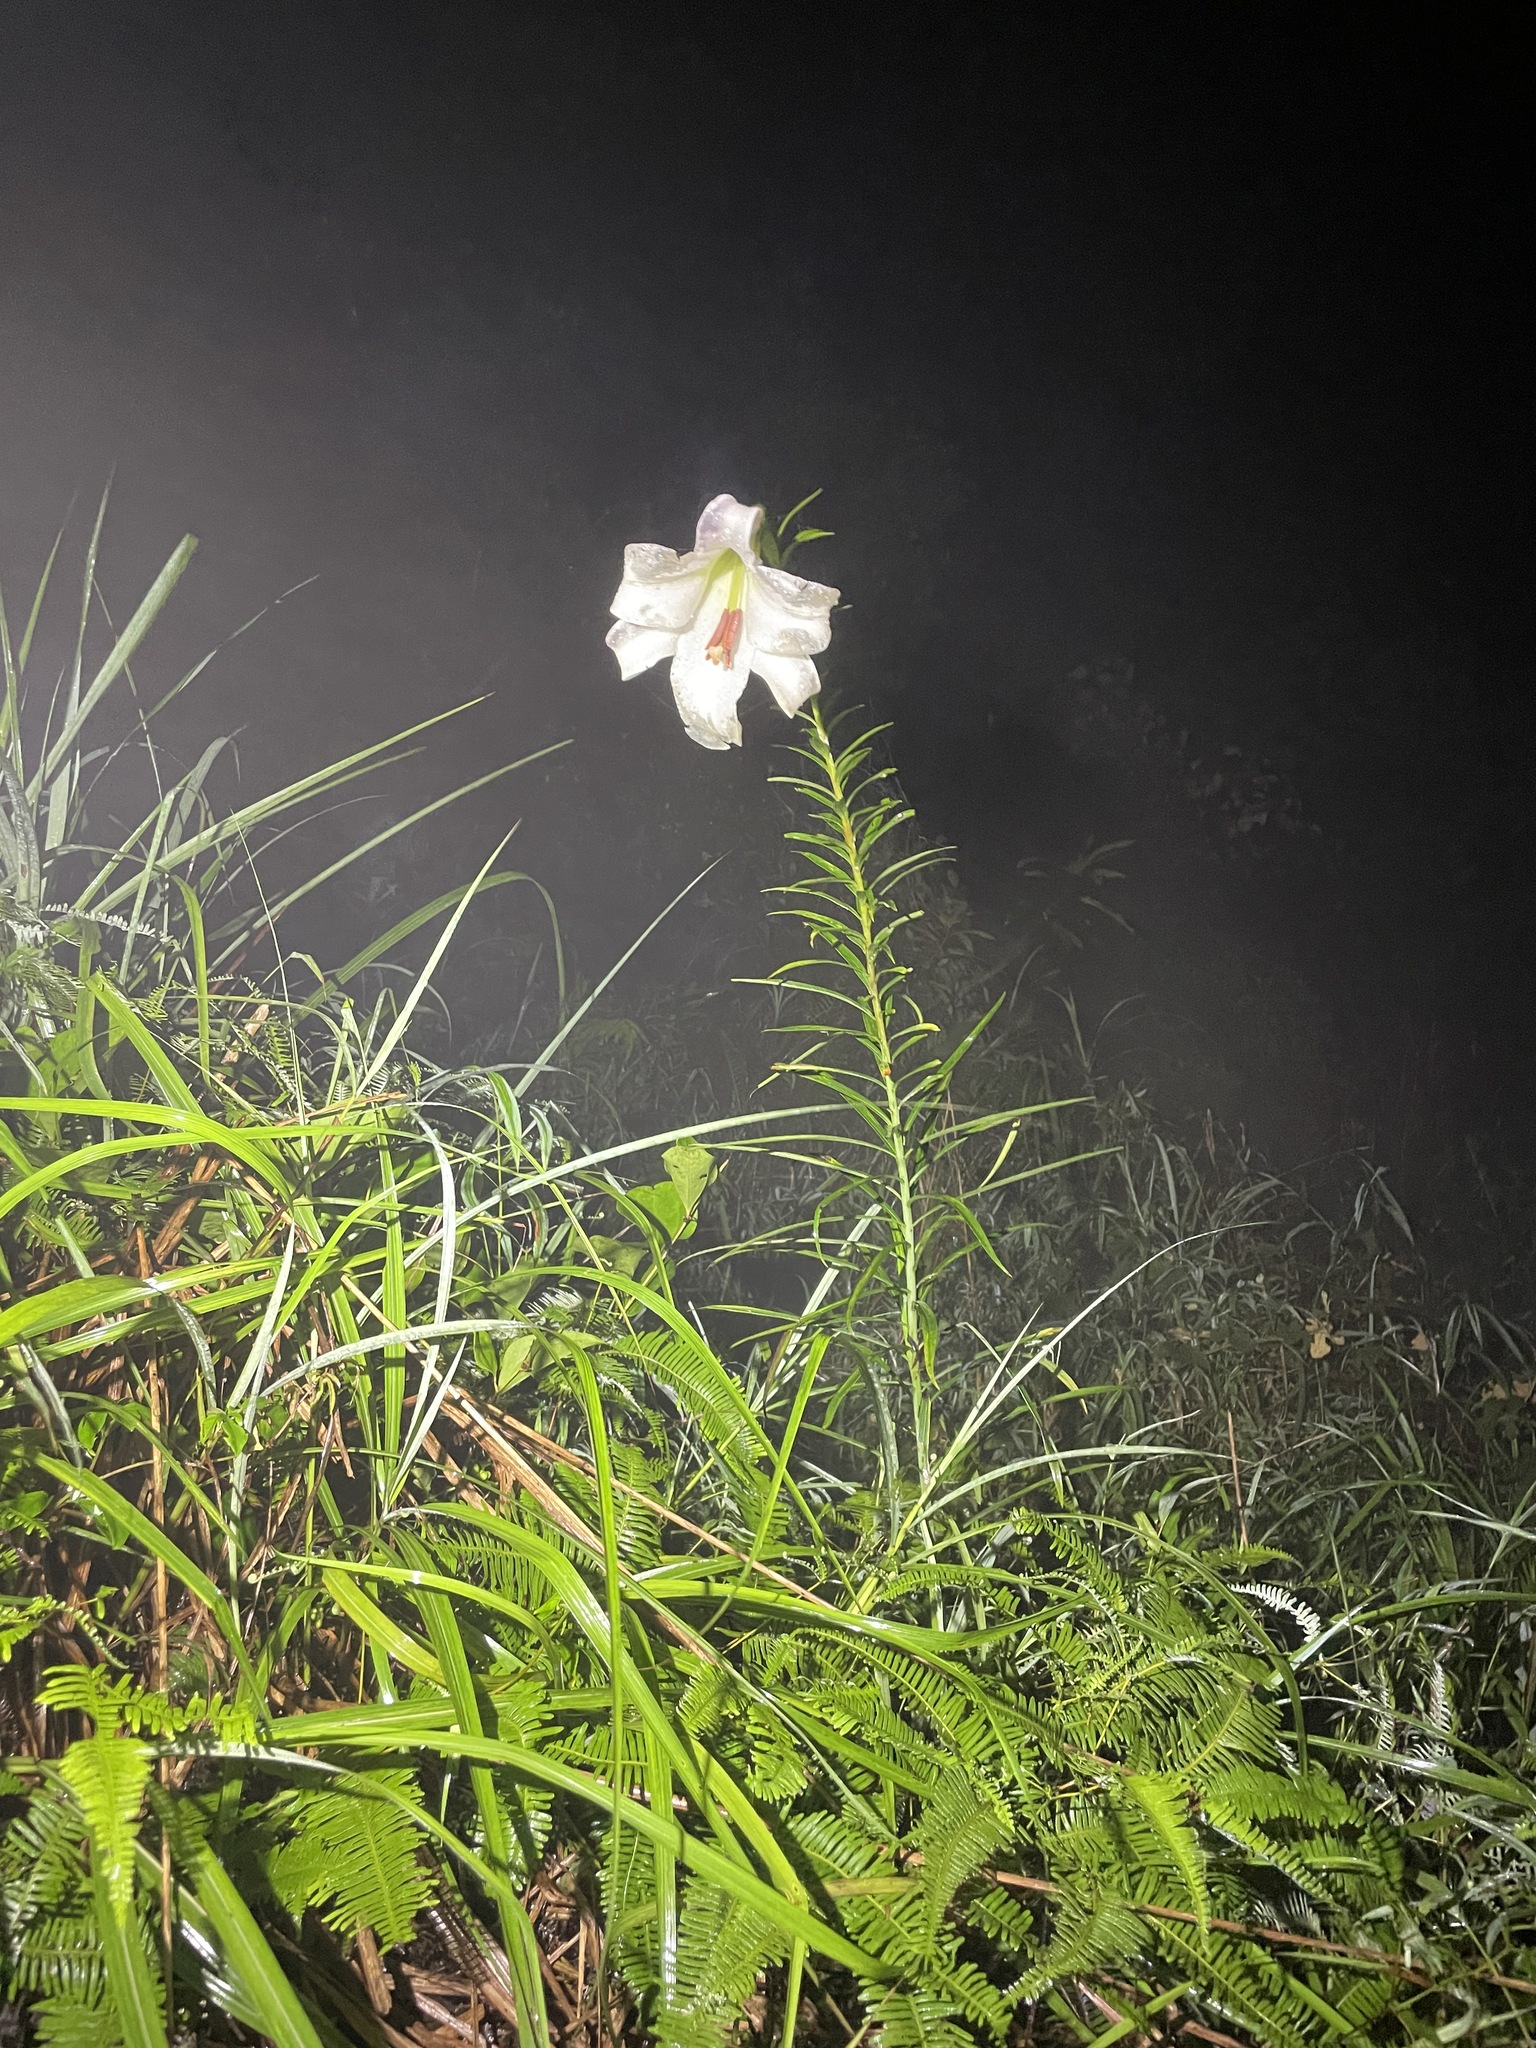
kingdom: Plantae
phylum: Tracheophyta
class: Liliopsida
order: Liliales
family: Liliaceae
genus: Lilium
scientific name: Lilium brownii
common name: Brown's lily
